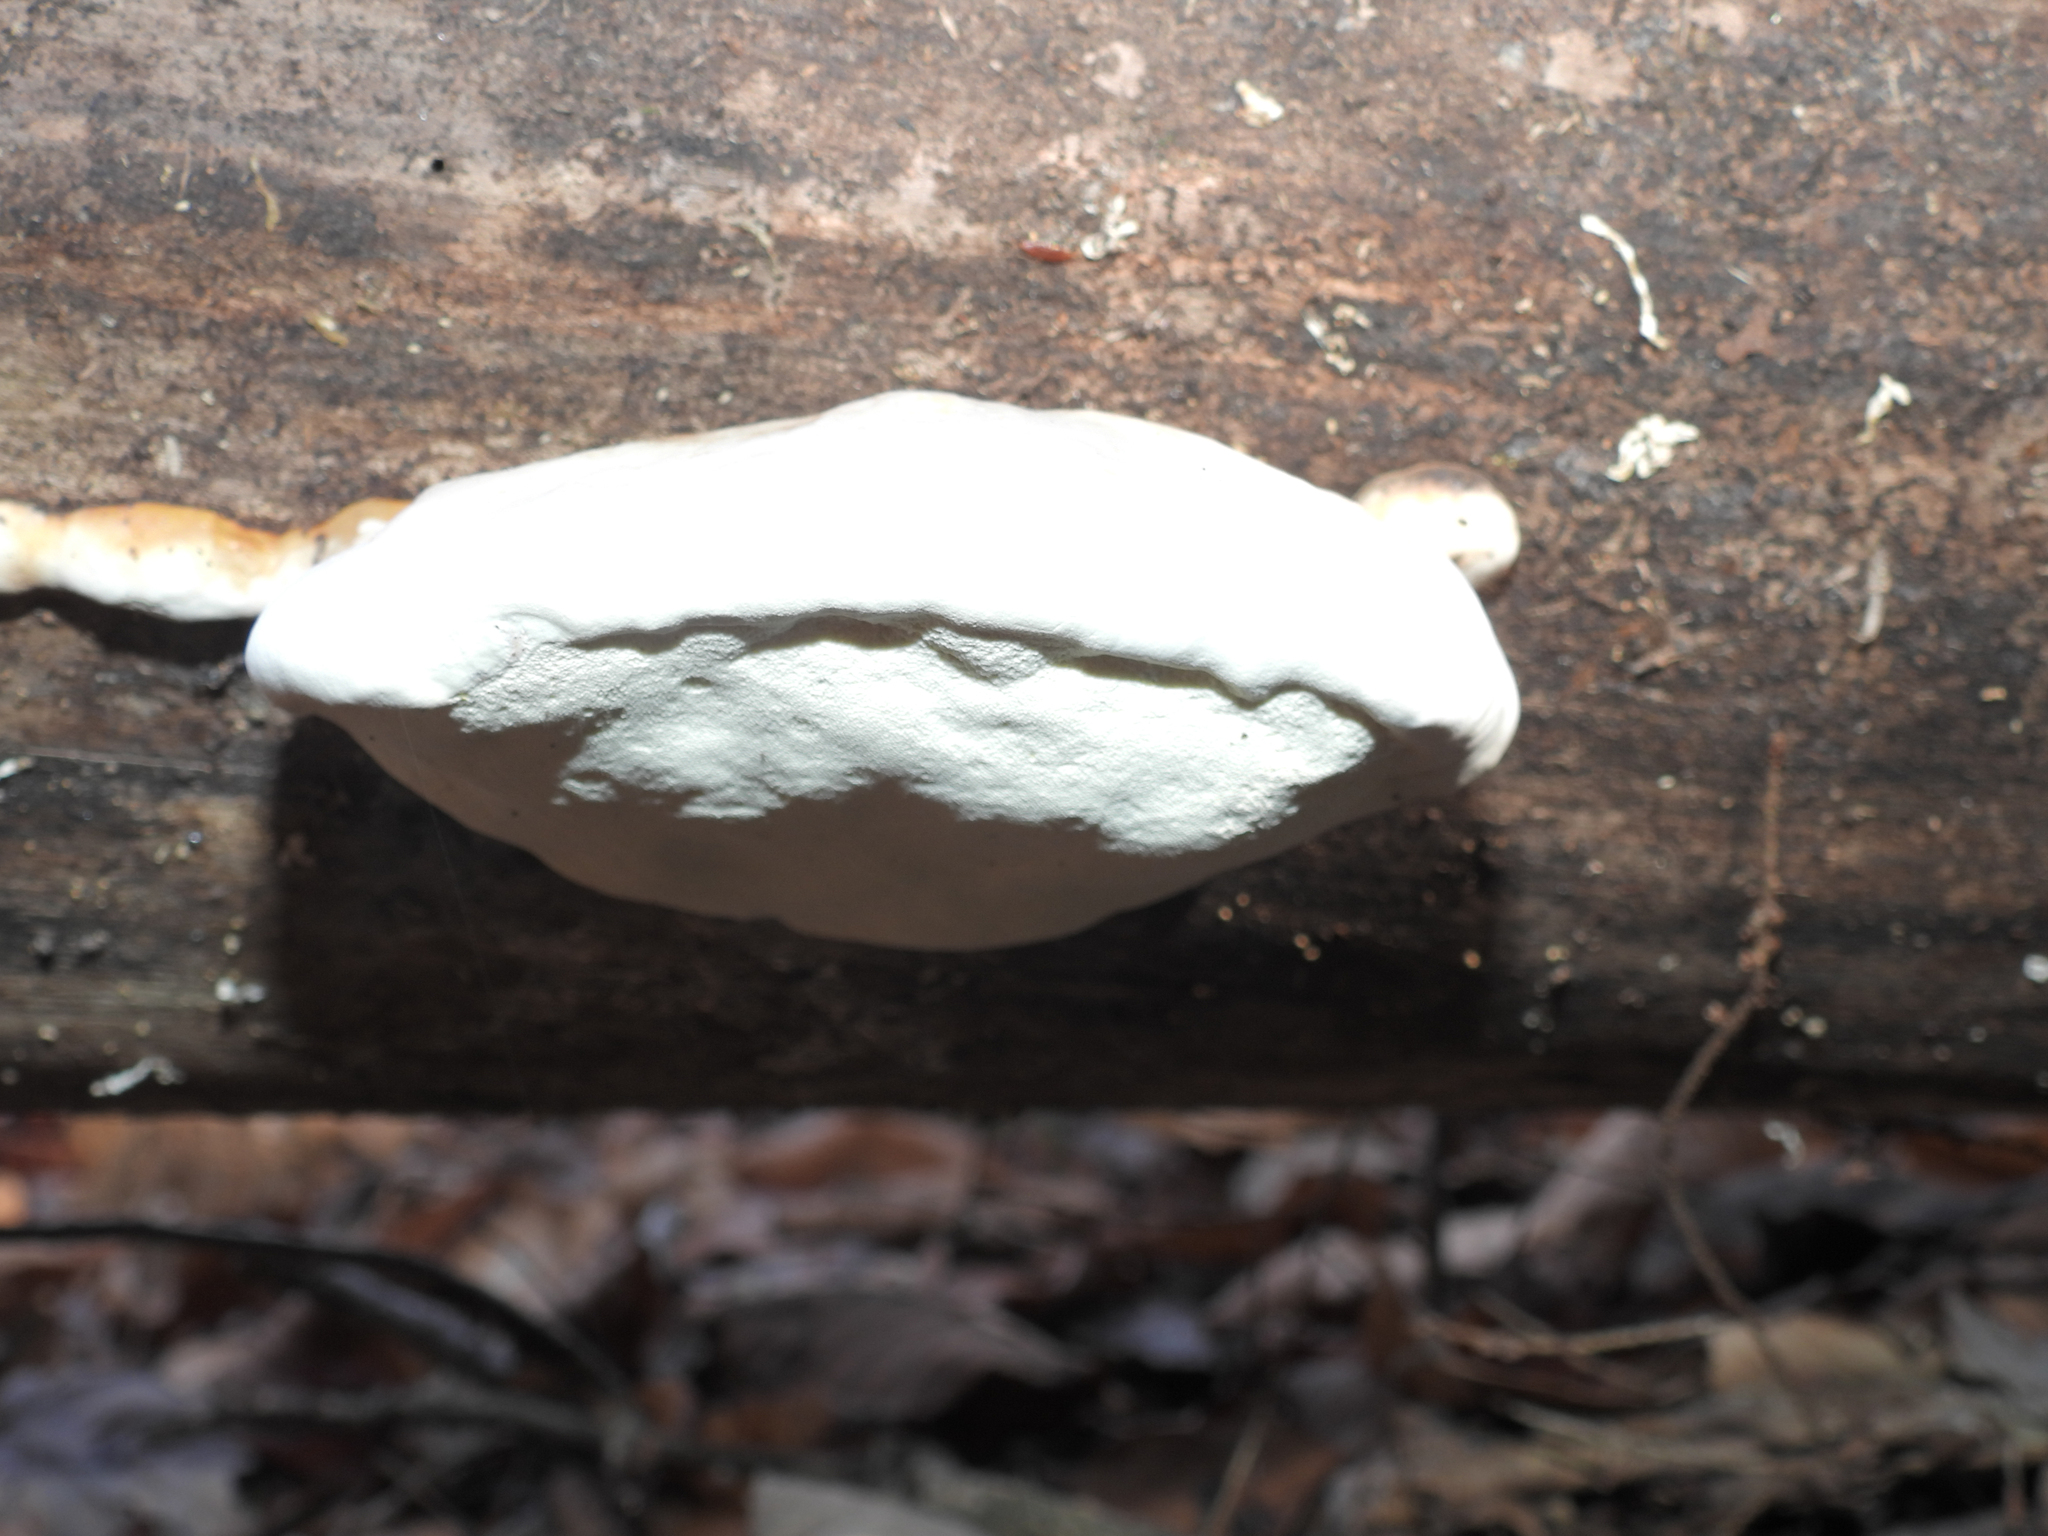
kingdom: Fungi
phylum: Basidiomycota
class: Agaricomycetes
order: Polyporales
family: Fomitopsidaceae
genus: Fomitopsis
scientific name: Fomitopsis mounceae
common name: Northern red belt
